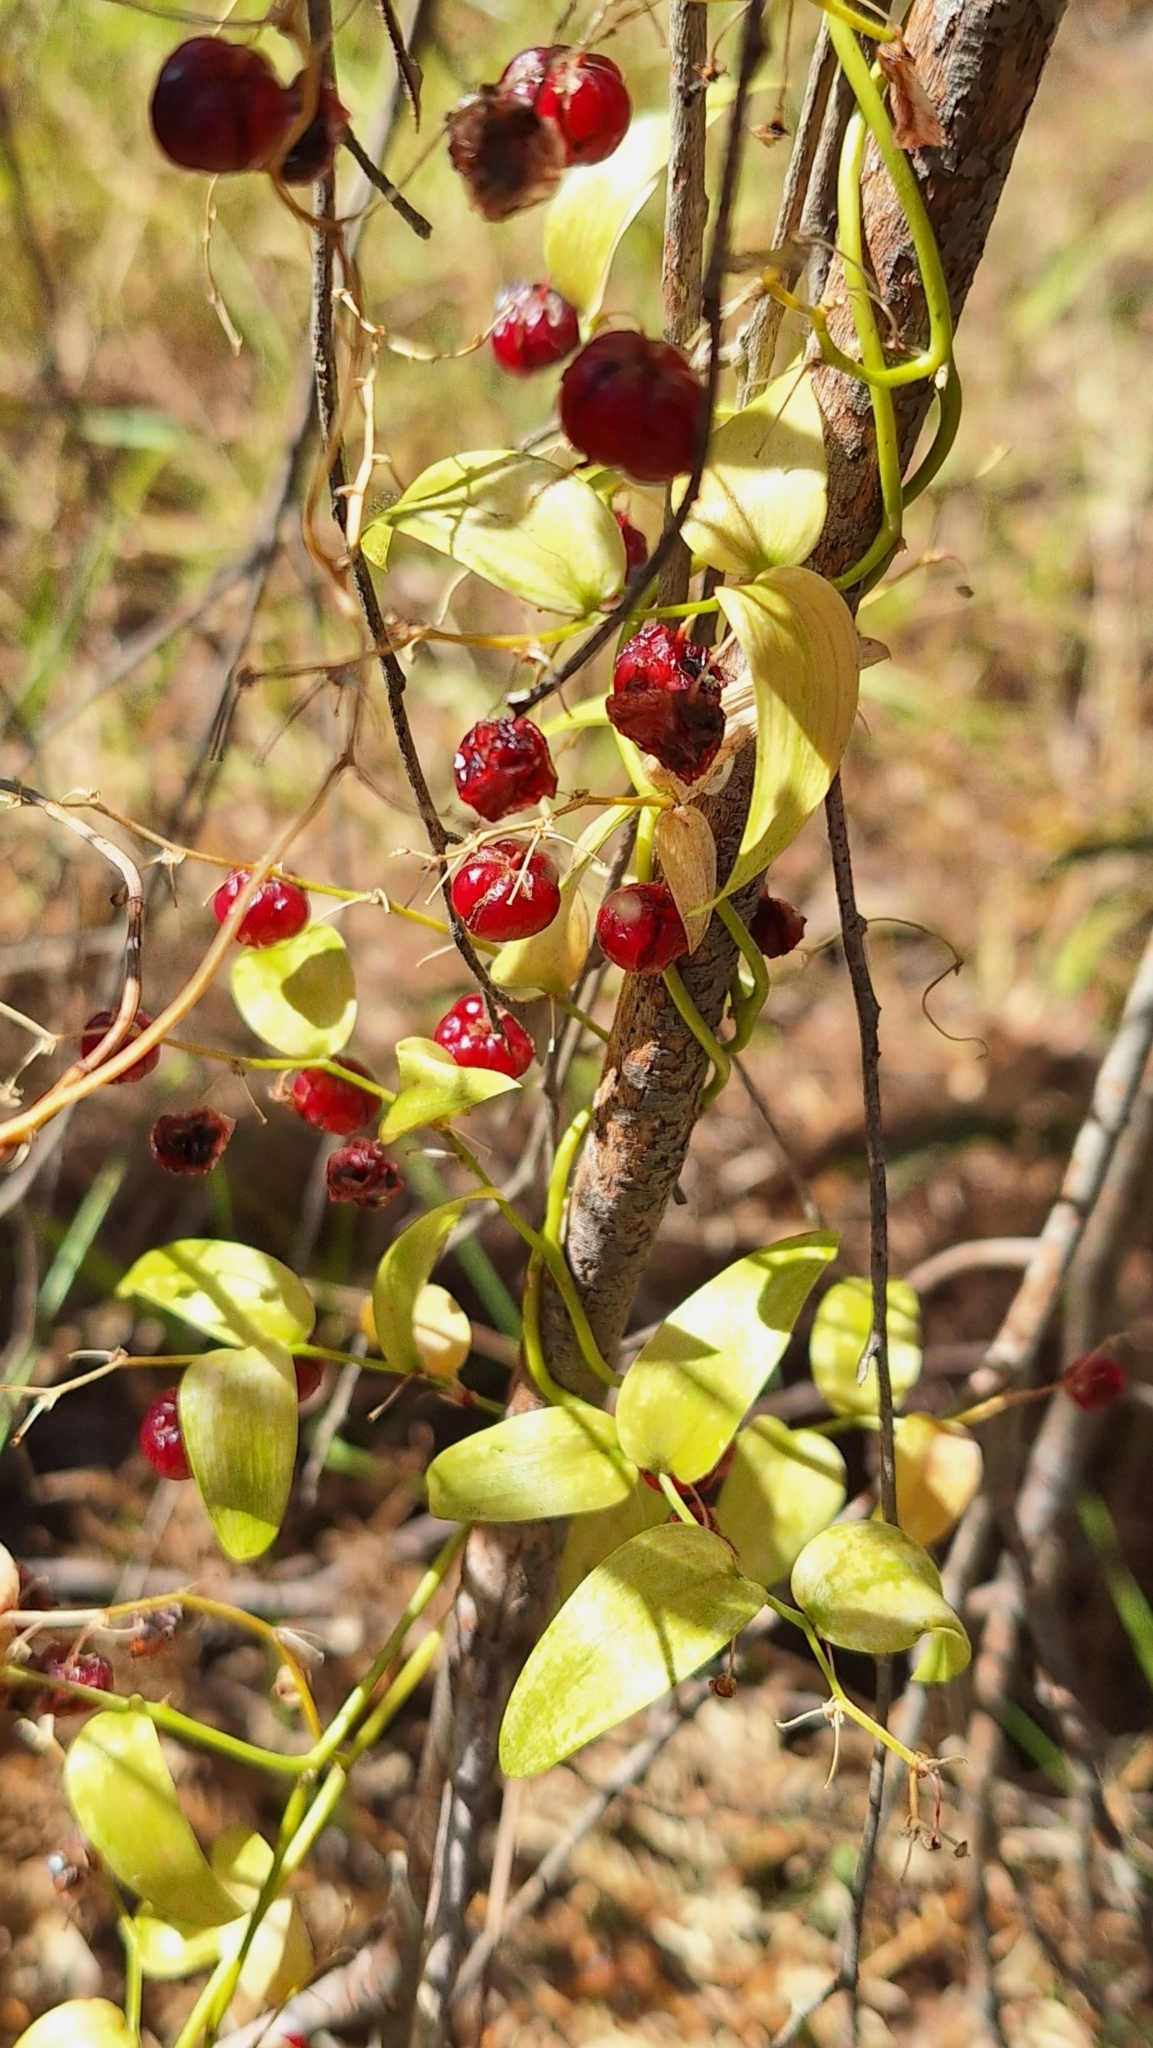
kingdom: Plantae
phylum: Tracheophyta
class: Liliopsida
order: Asparagales
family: Asparagaceae
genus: Asparagus
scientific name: Asparagus asparagoides
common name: African asparagus fern
